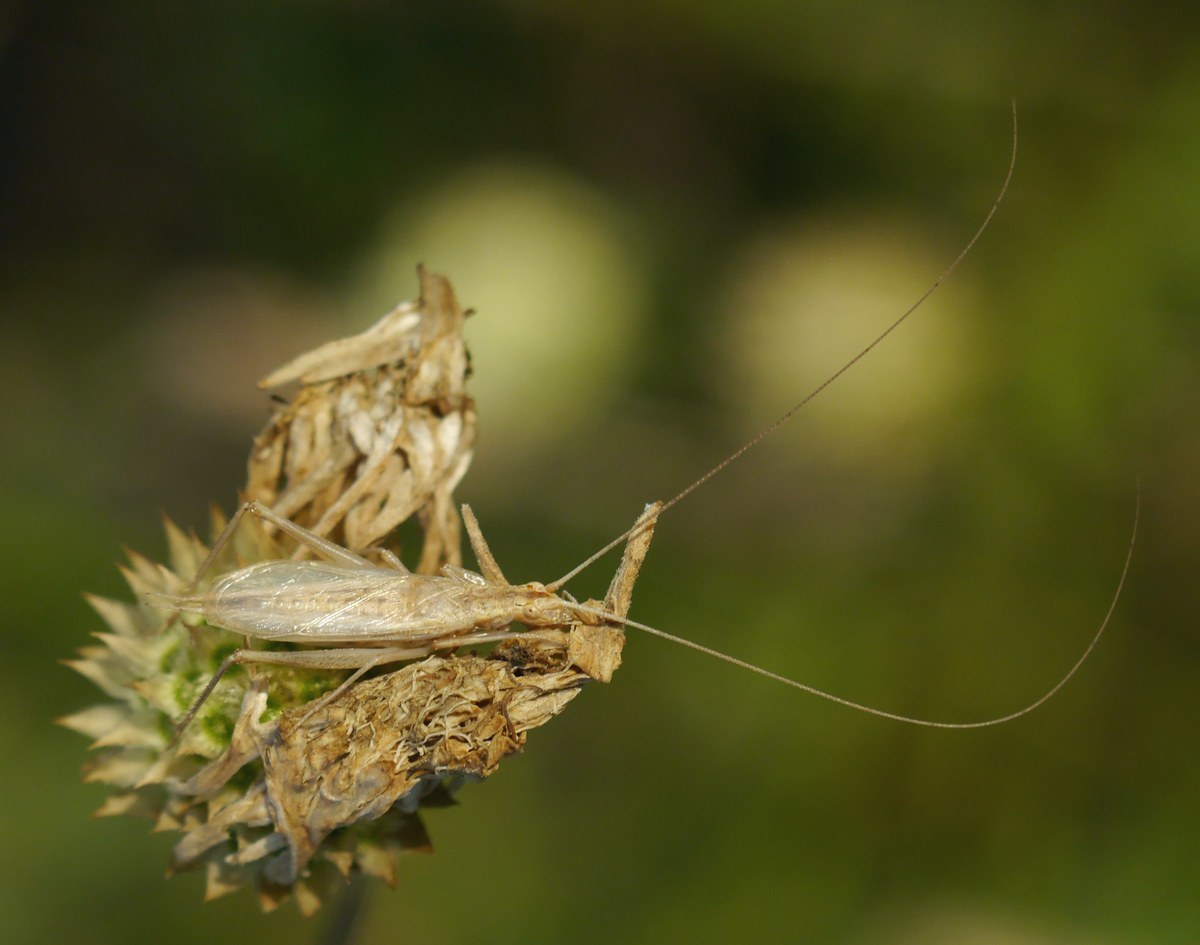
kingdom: Animalia
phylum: Arthropoda
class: Insecta
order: Orthoptera
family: Gryllidae
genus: Oecanthus
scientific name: Oecanthus pellucens
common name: Tree-cricket
